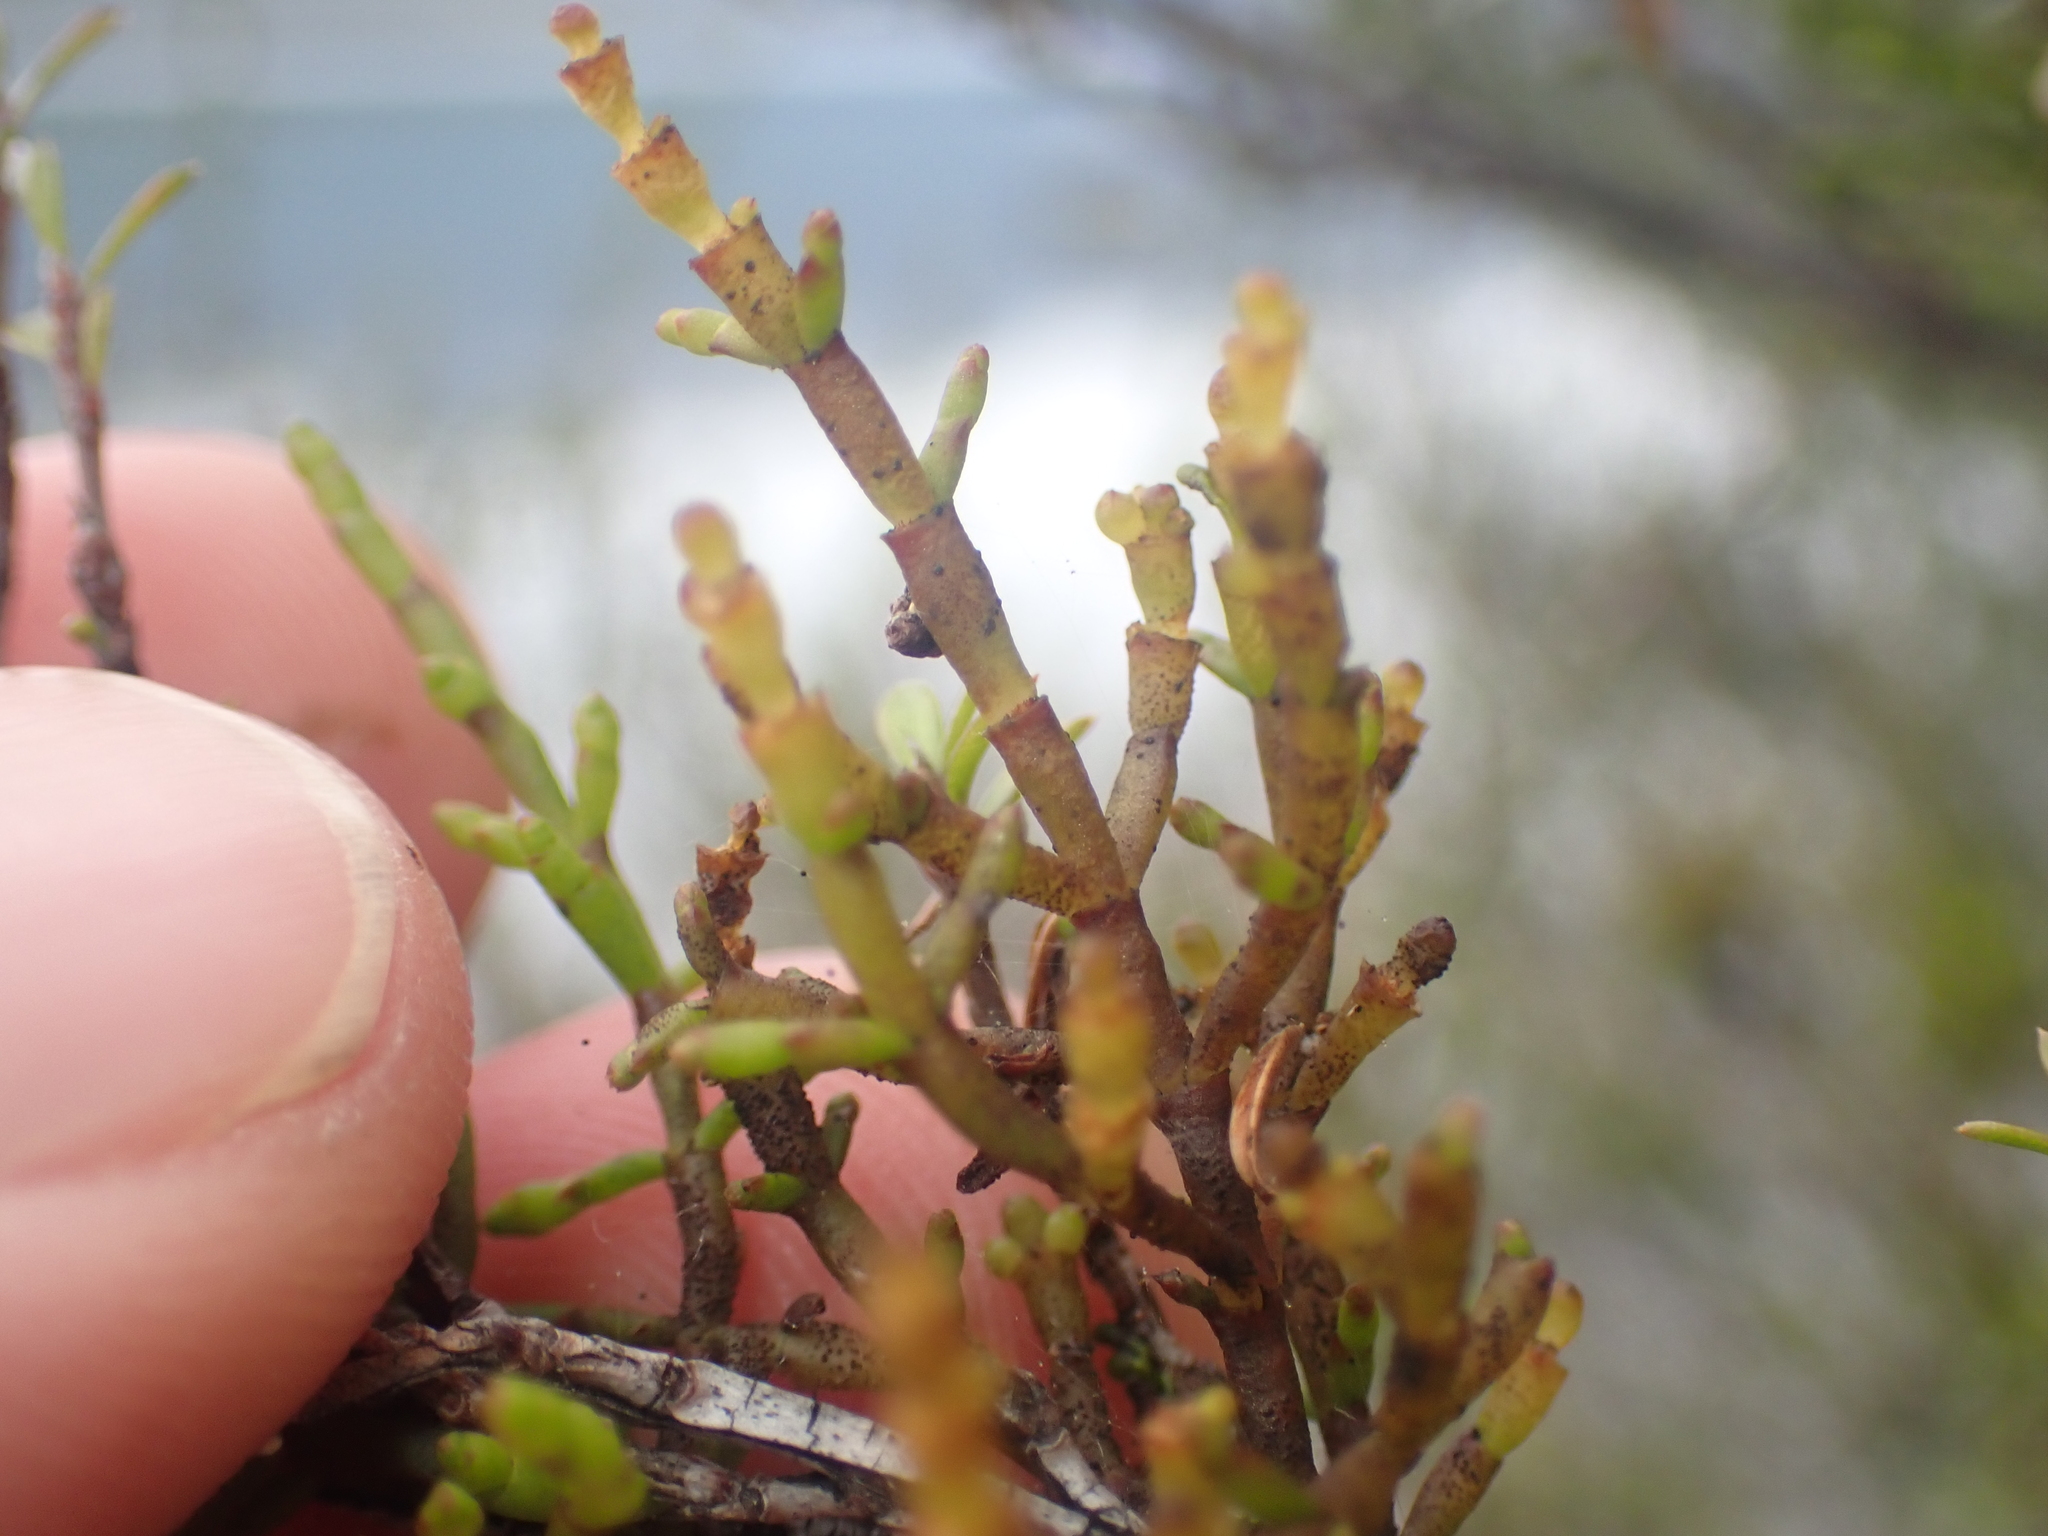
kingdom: Plantae
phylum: Tracheophyta
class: Magnoliopsida
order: Santalales
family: Viscaceae
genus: Korthalsella
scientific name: Korthalsella salicornioides
